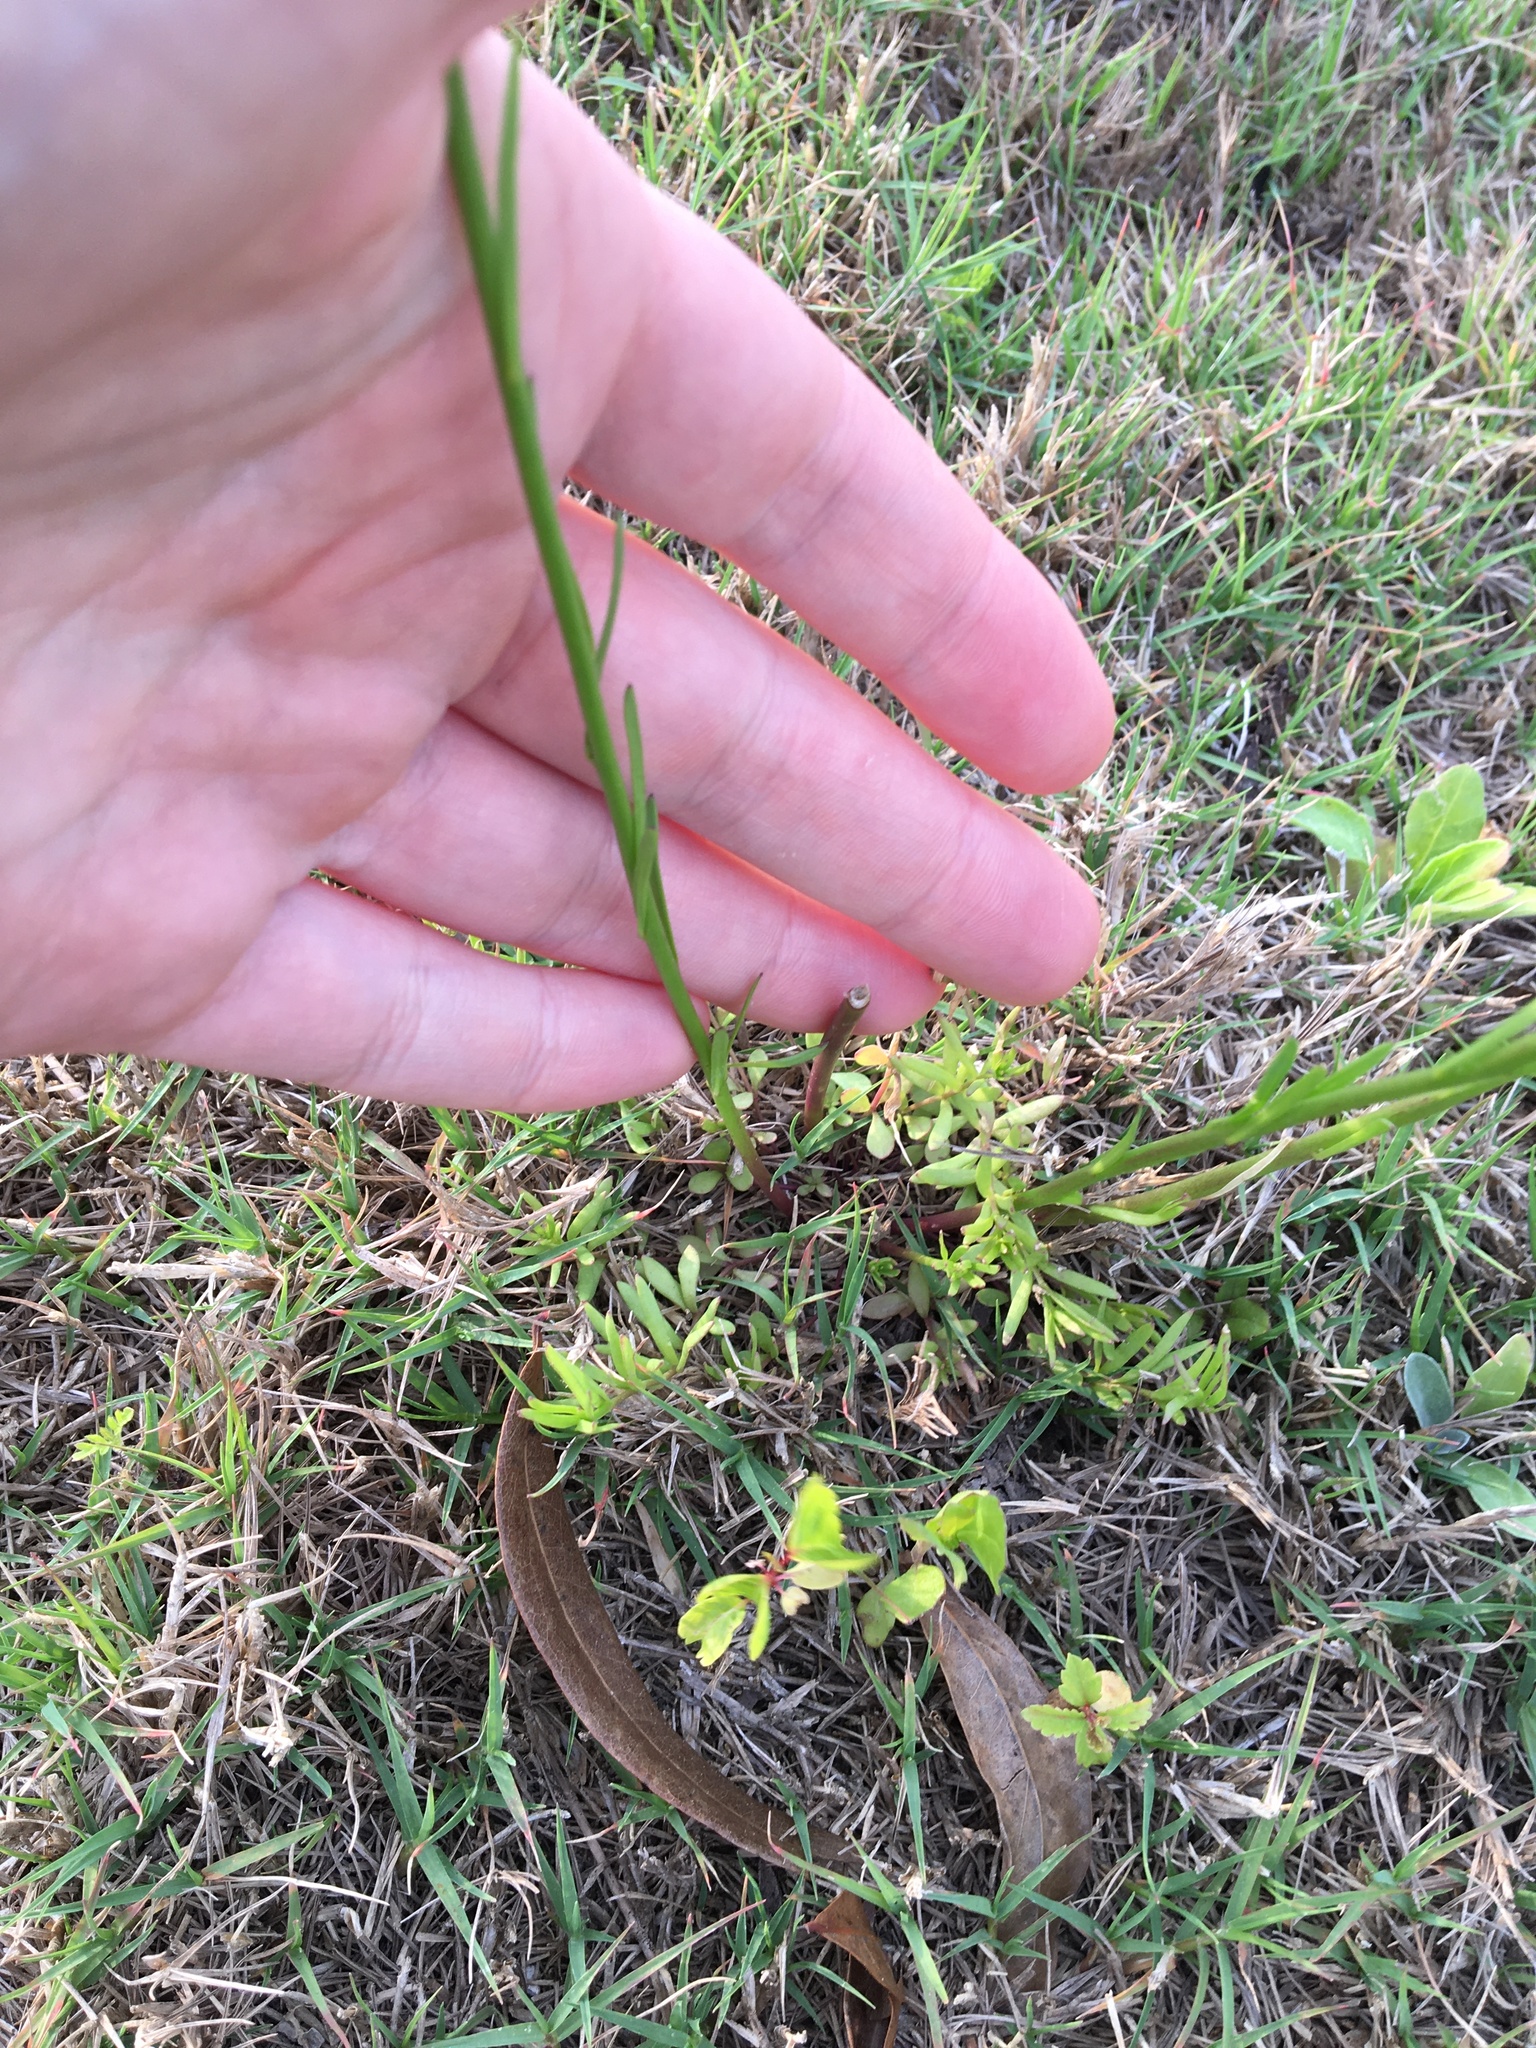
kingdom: Plantae
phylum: Tracheophyta
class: Magnoliopsida
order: Lamiales
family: Plantaginaceae
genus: Nuttallanthus
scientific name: Nuttallanthus canadensis
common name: Blue toadflax
